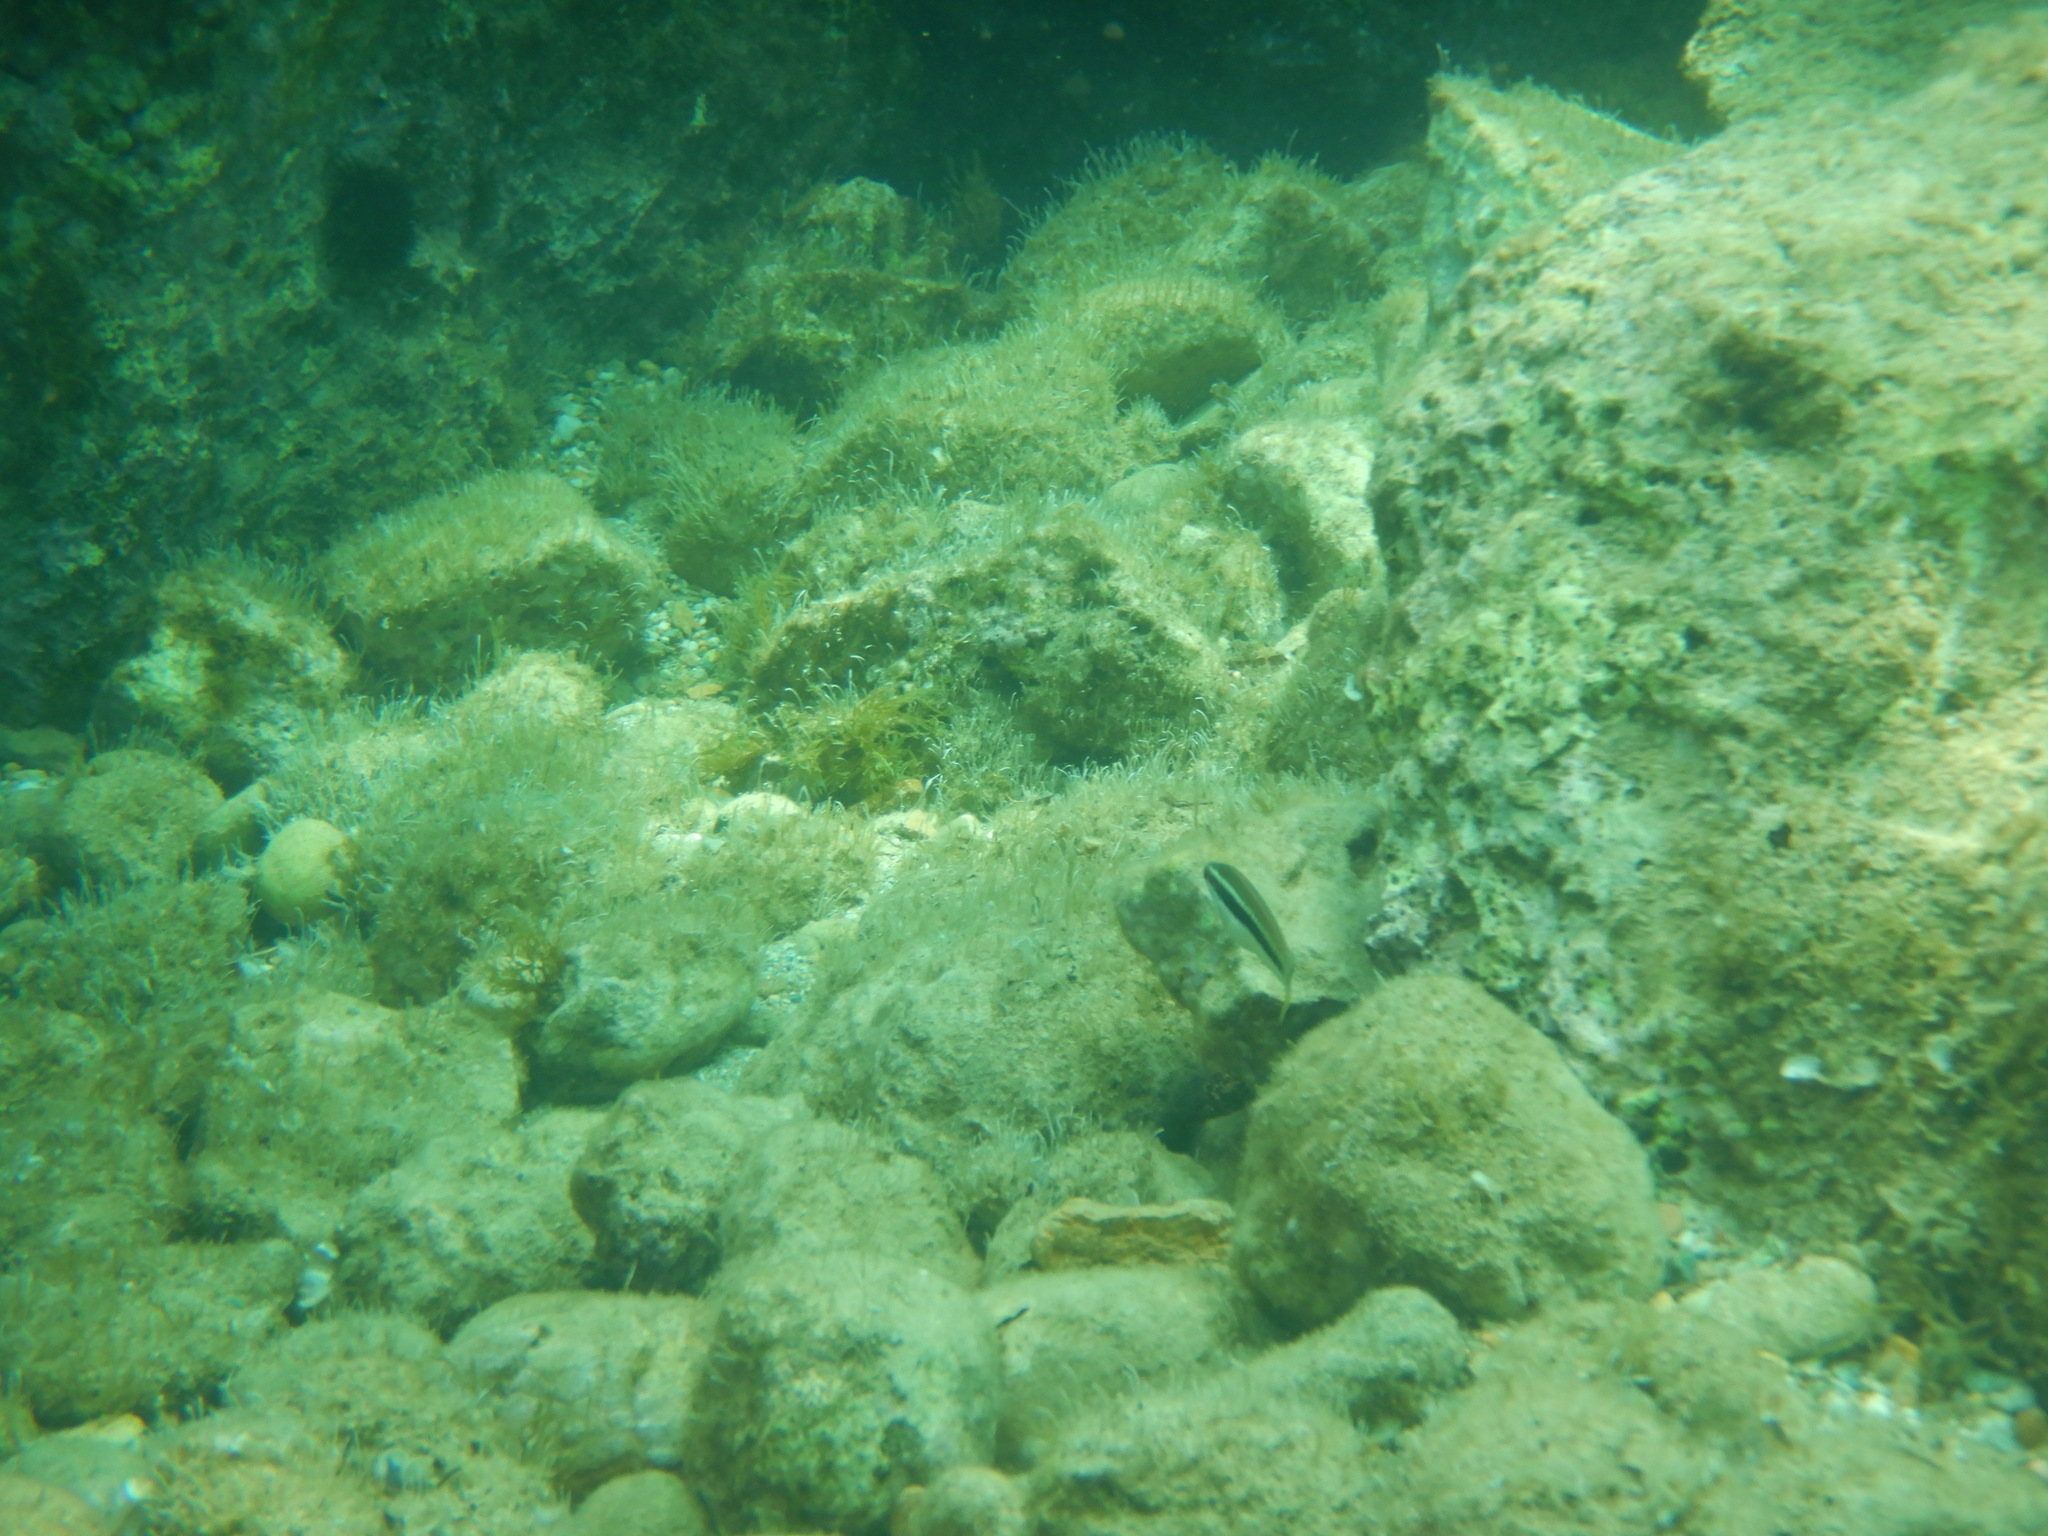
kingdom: Animalia
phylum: Chordata
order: Perciformes
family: Labridae
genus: Coris
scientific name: Coris julis
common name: Rainbow wrasse
